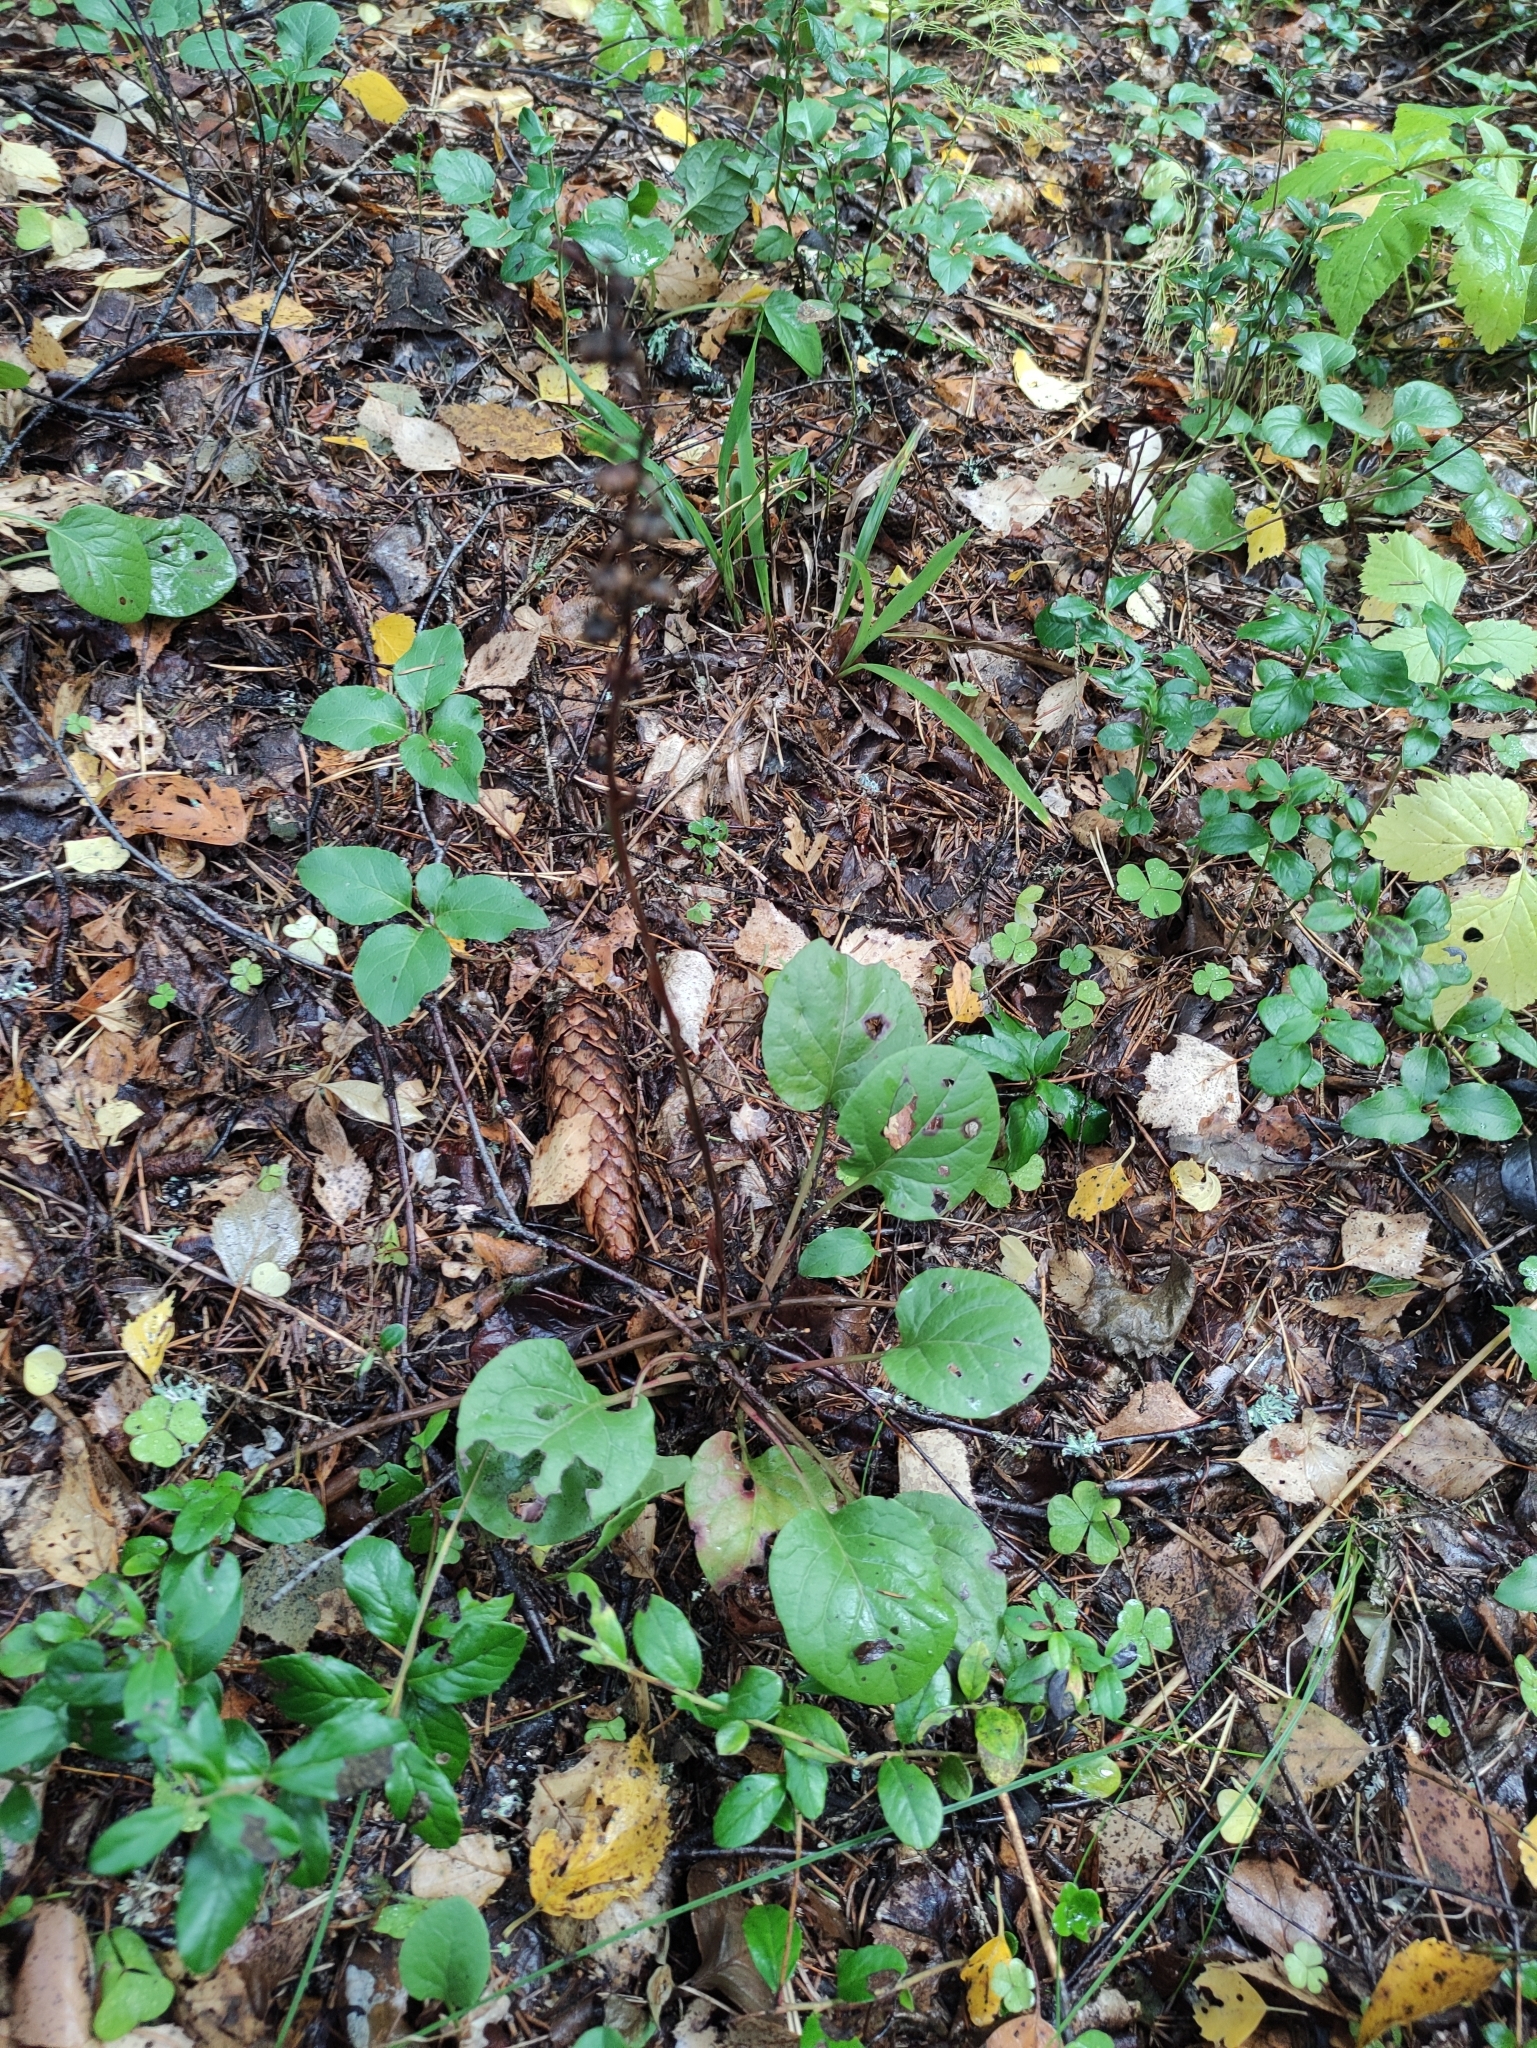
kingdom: Plantae
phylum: Tracheophyta
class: Magnoliopsida
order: Ericales
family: Ericaceae
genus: Pyrola
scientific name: Pyrola rotundifolia
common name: Round-leaved wintergreen
